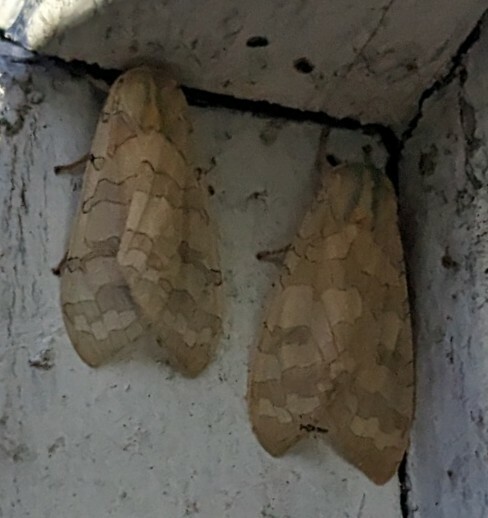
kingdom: Animalia
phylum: Arthropoda
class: Insecta
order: Lepidoptera
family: Erebidae
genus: Halysidota
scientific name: Halysidota tessellaris
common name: Banded tussock moth
